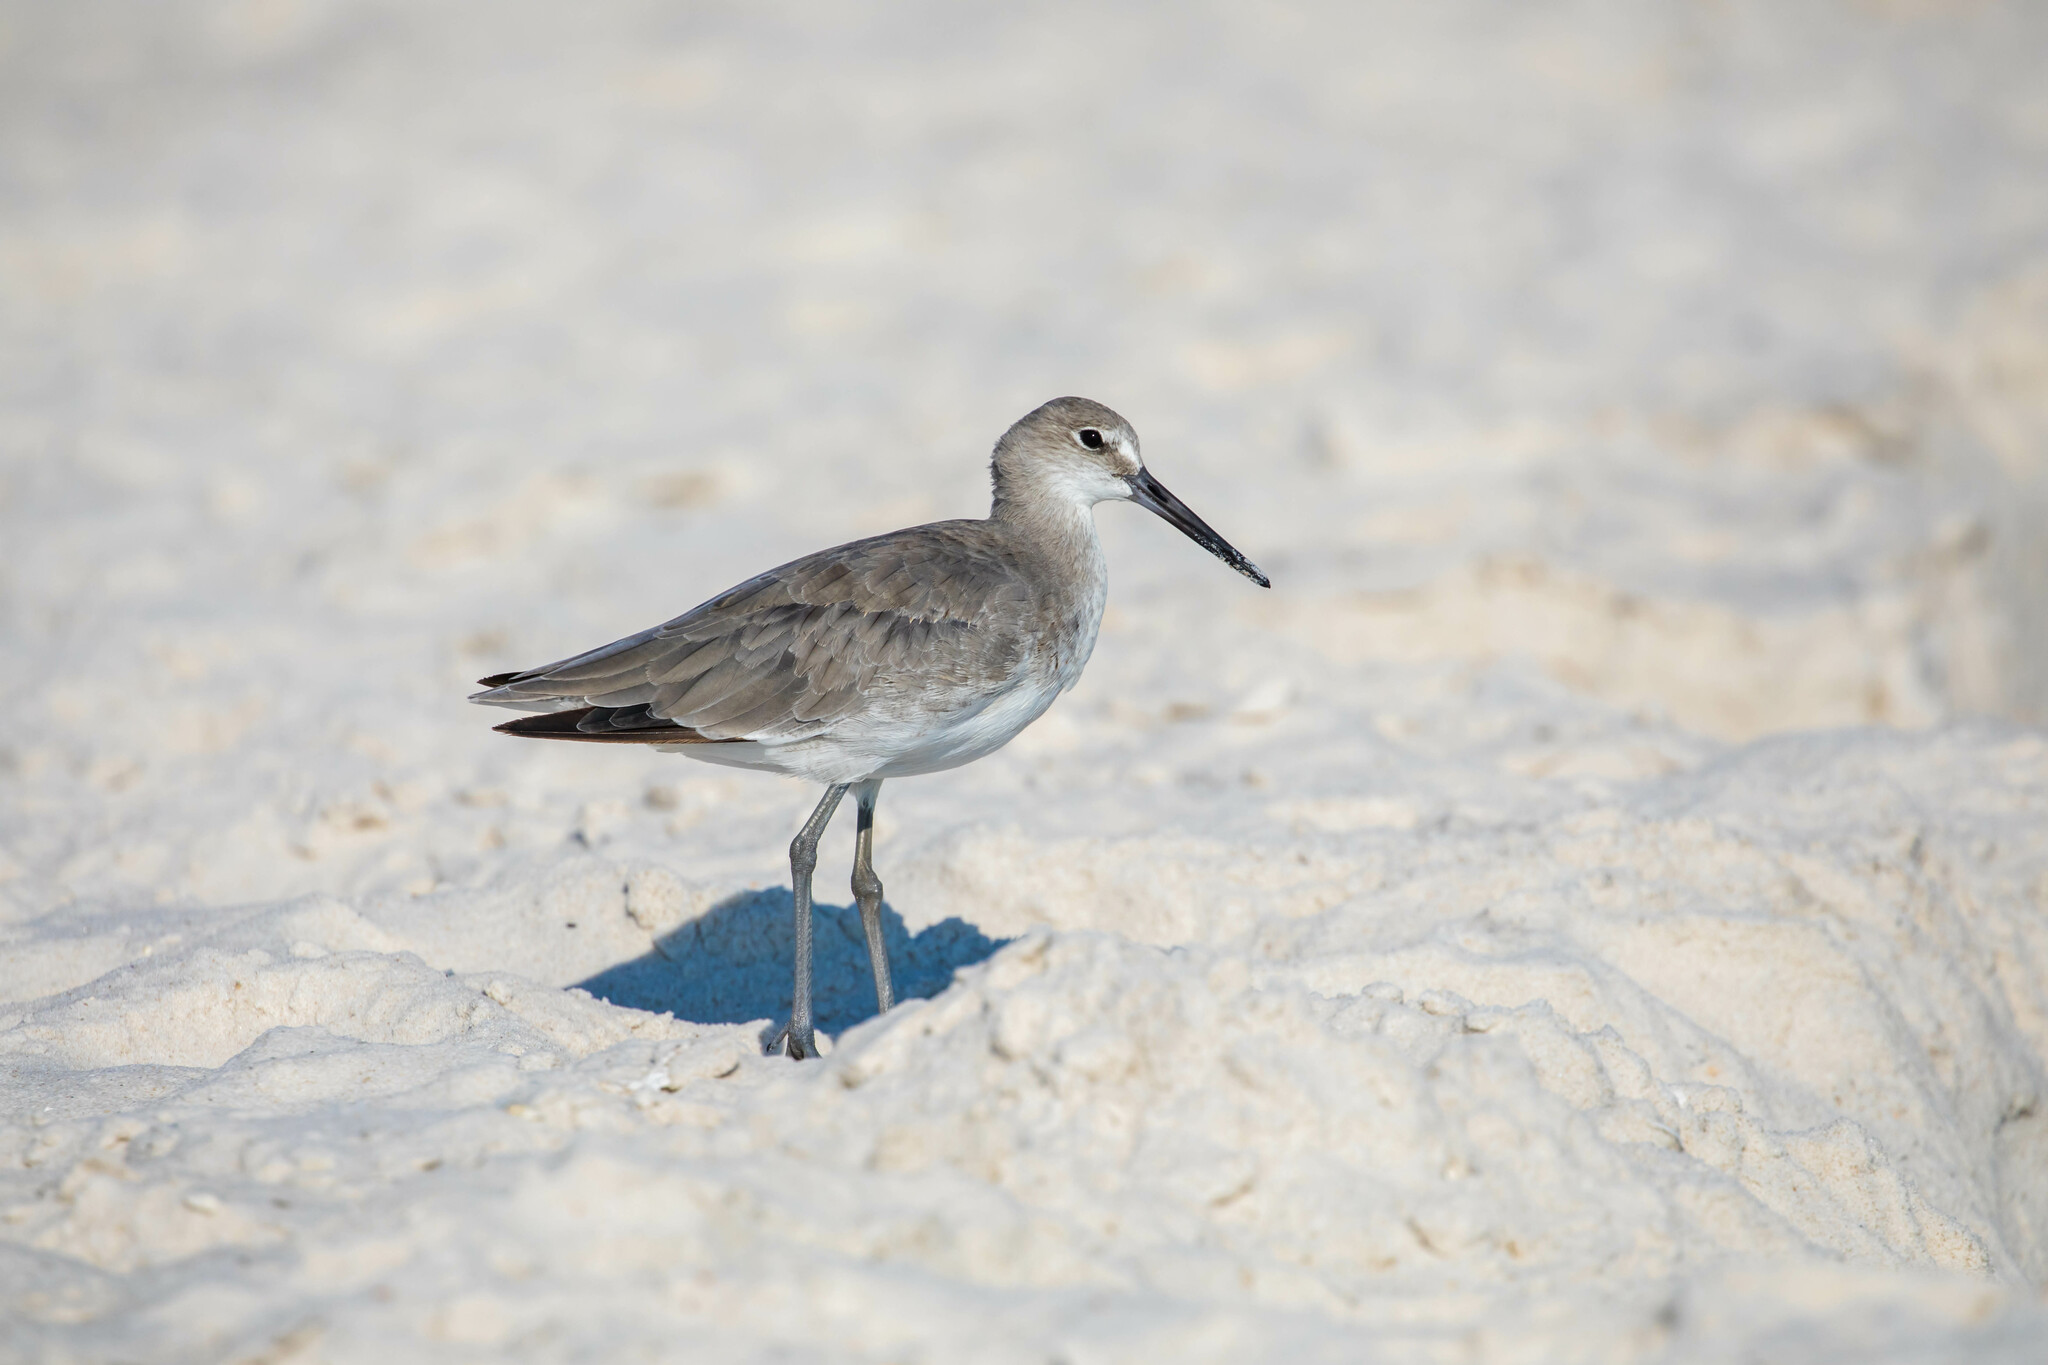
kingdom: Animalia
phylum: Chordata
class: Aves
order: Charadriiformes
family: Scolopacidae
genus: Tringa
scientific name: Tringa semipalmata
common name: Willet
